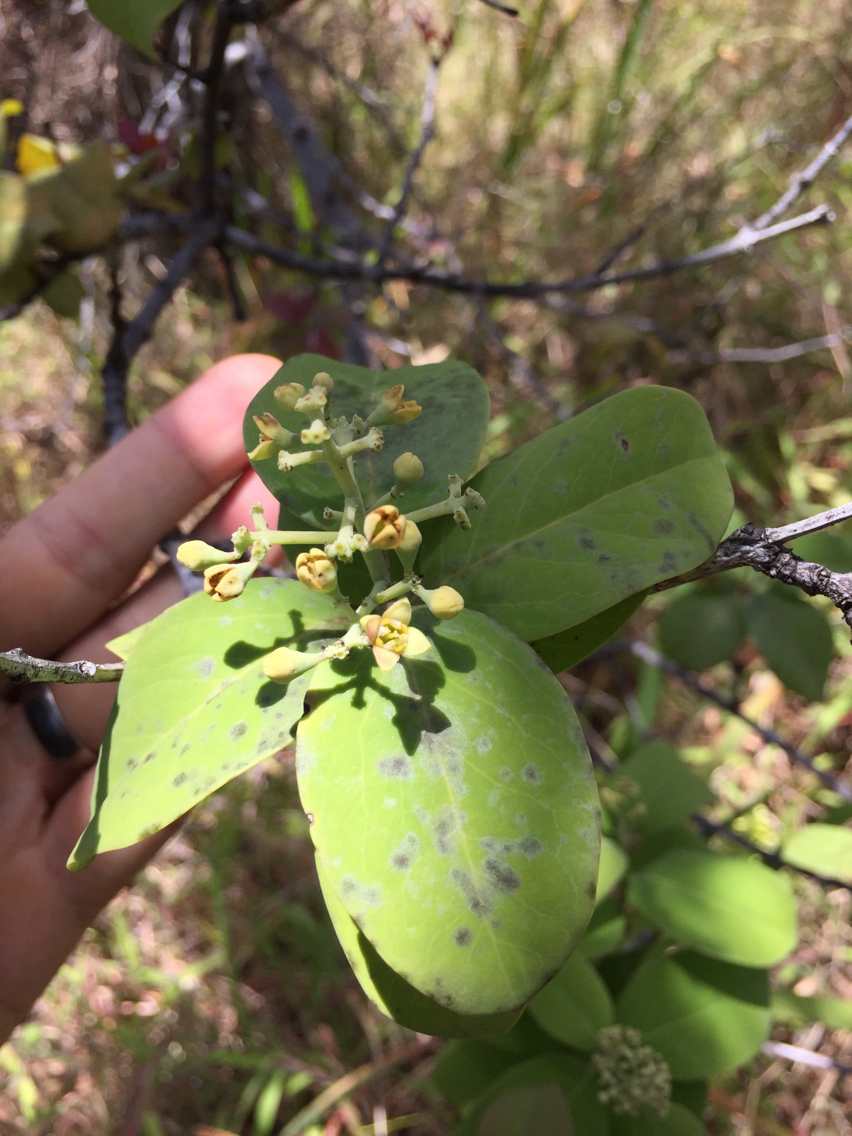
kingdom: Plantae
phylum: Tracheophyta
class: Magnoliopsida
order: Santalales
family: Santalaceae
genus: Santalum
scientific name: Santalum paniculatum
